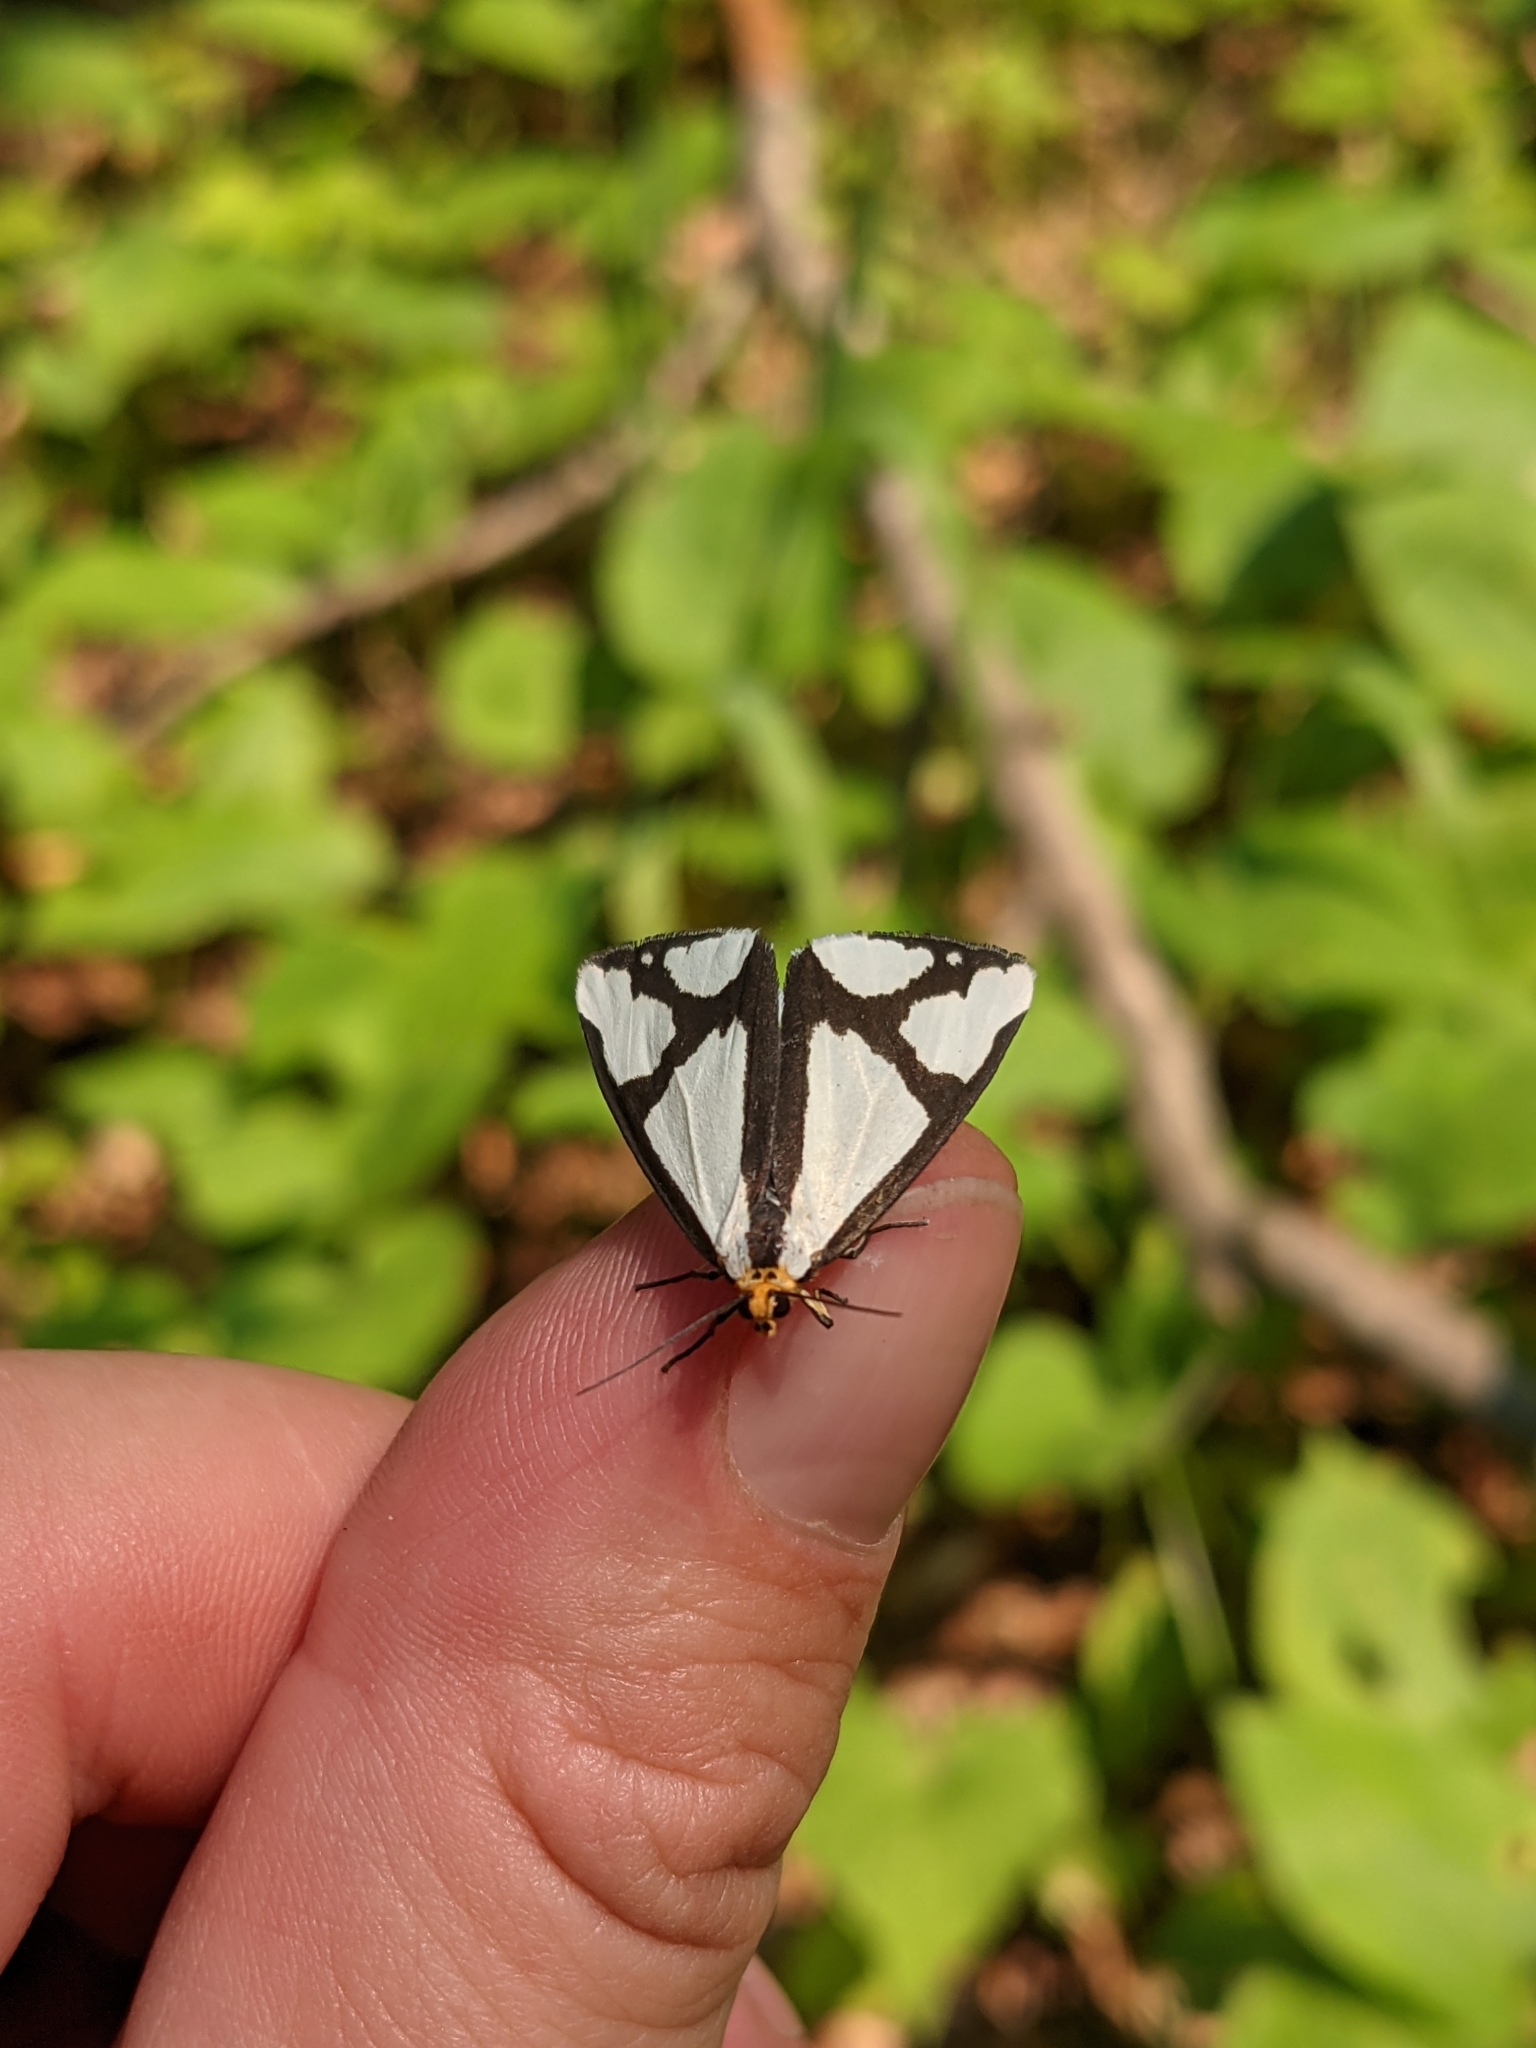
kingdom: Animalia
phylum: Arthropoda
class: Insecta
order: Lepidoptera
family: Erebidae
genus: Haploa
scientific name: Haploa contigua
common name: Neighbor moth
